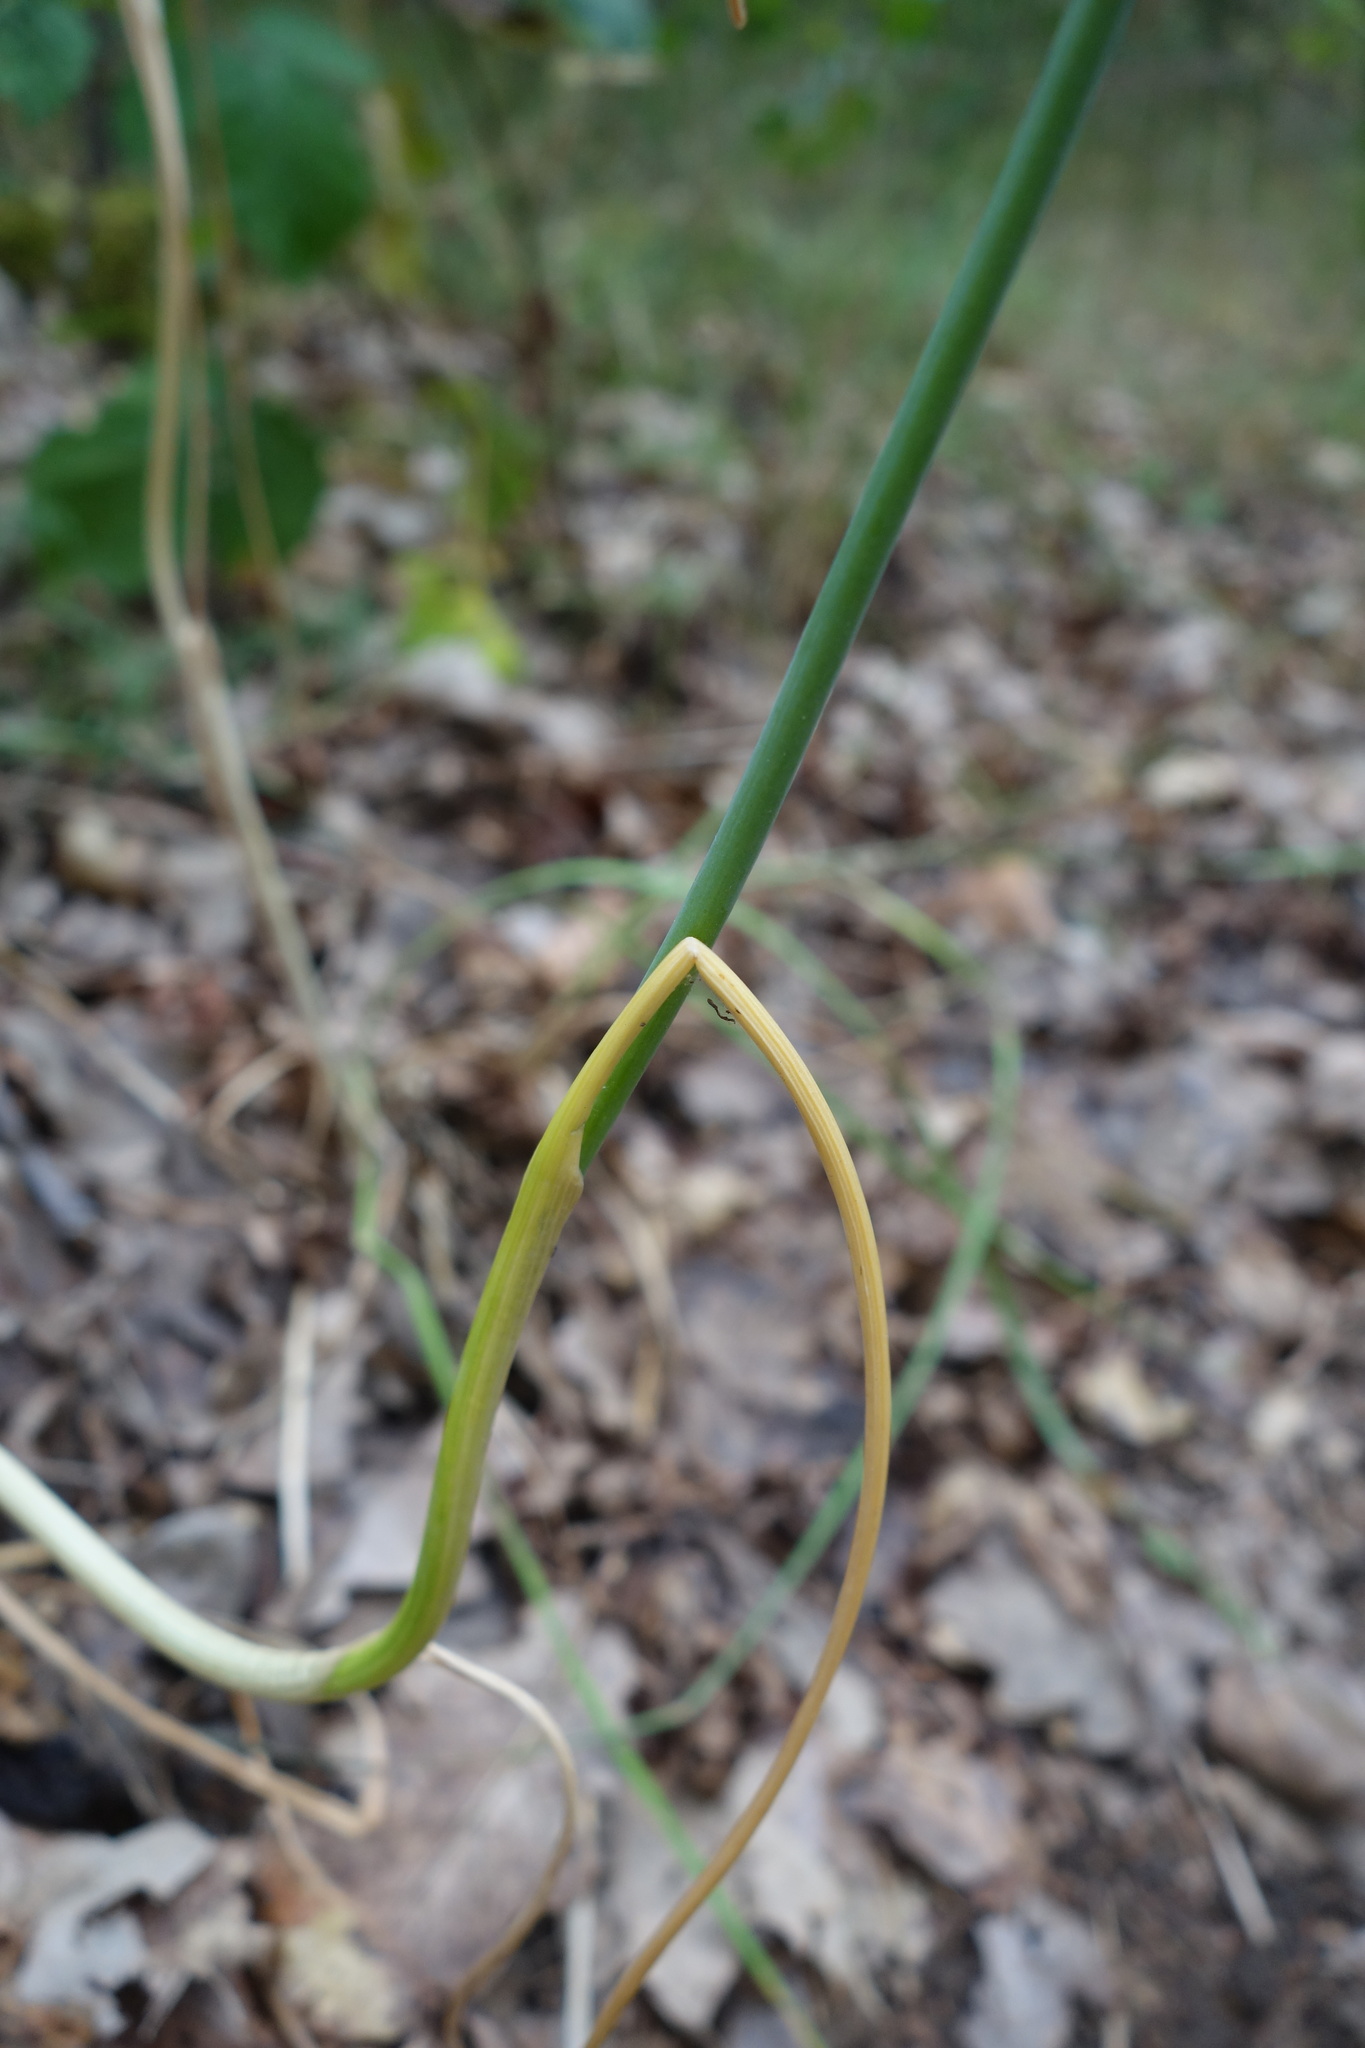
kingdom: Plantae
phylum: Tracheophyta
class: Liliopsida
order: Asparagales
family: Amaryllidaceae
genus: Allium
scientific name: Allium oleraceum
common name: Field garlic
